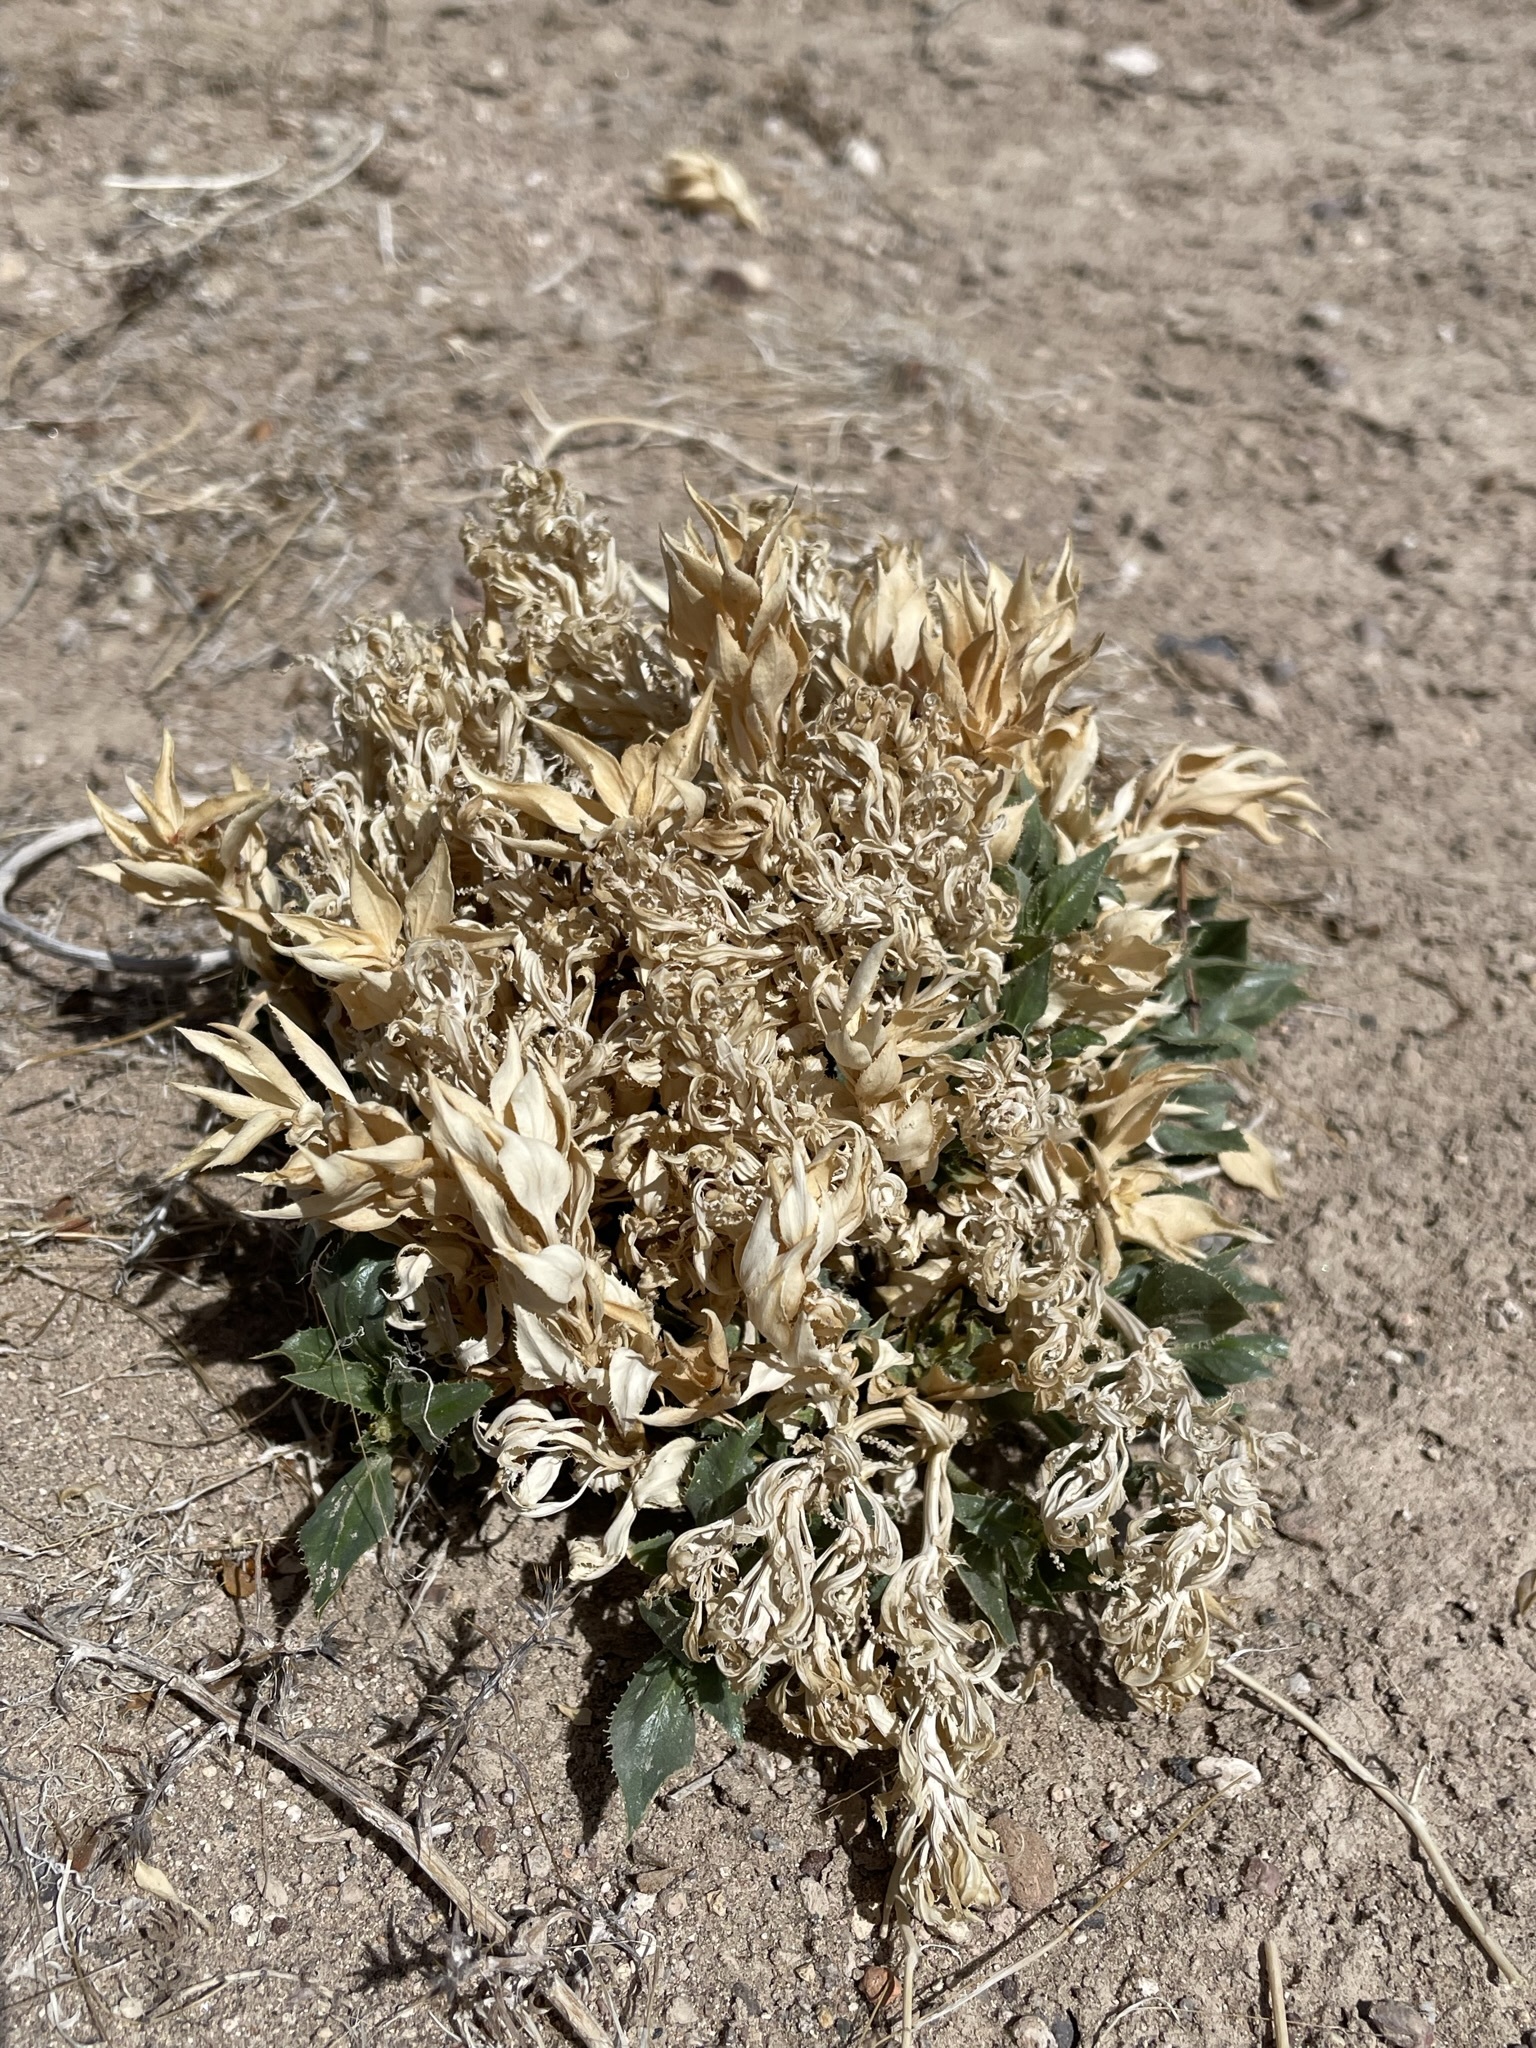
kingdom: Plantae
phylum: Tracheophyta
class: Magnoliopsida
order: Malpighiales
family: Euphorbiaceae
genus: Stillingia
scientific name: Stillingia spinulosa
